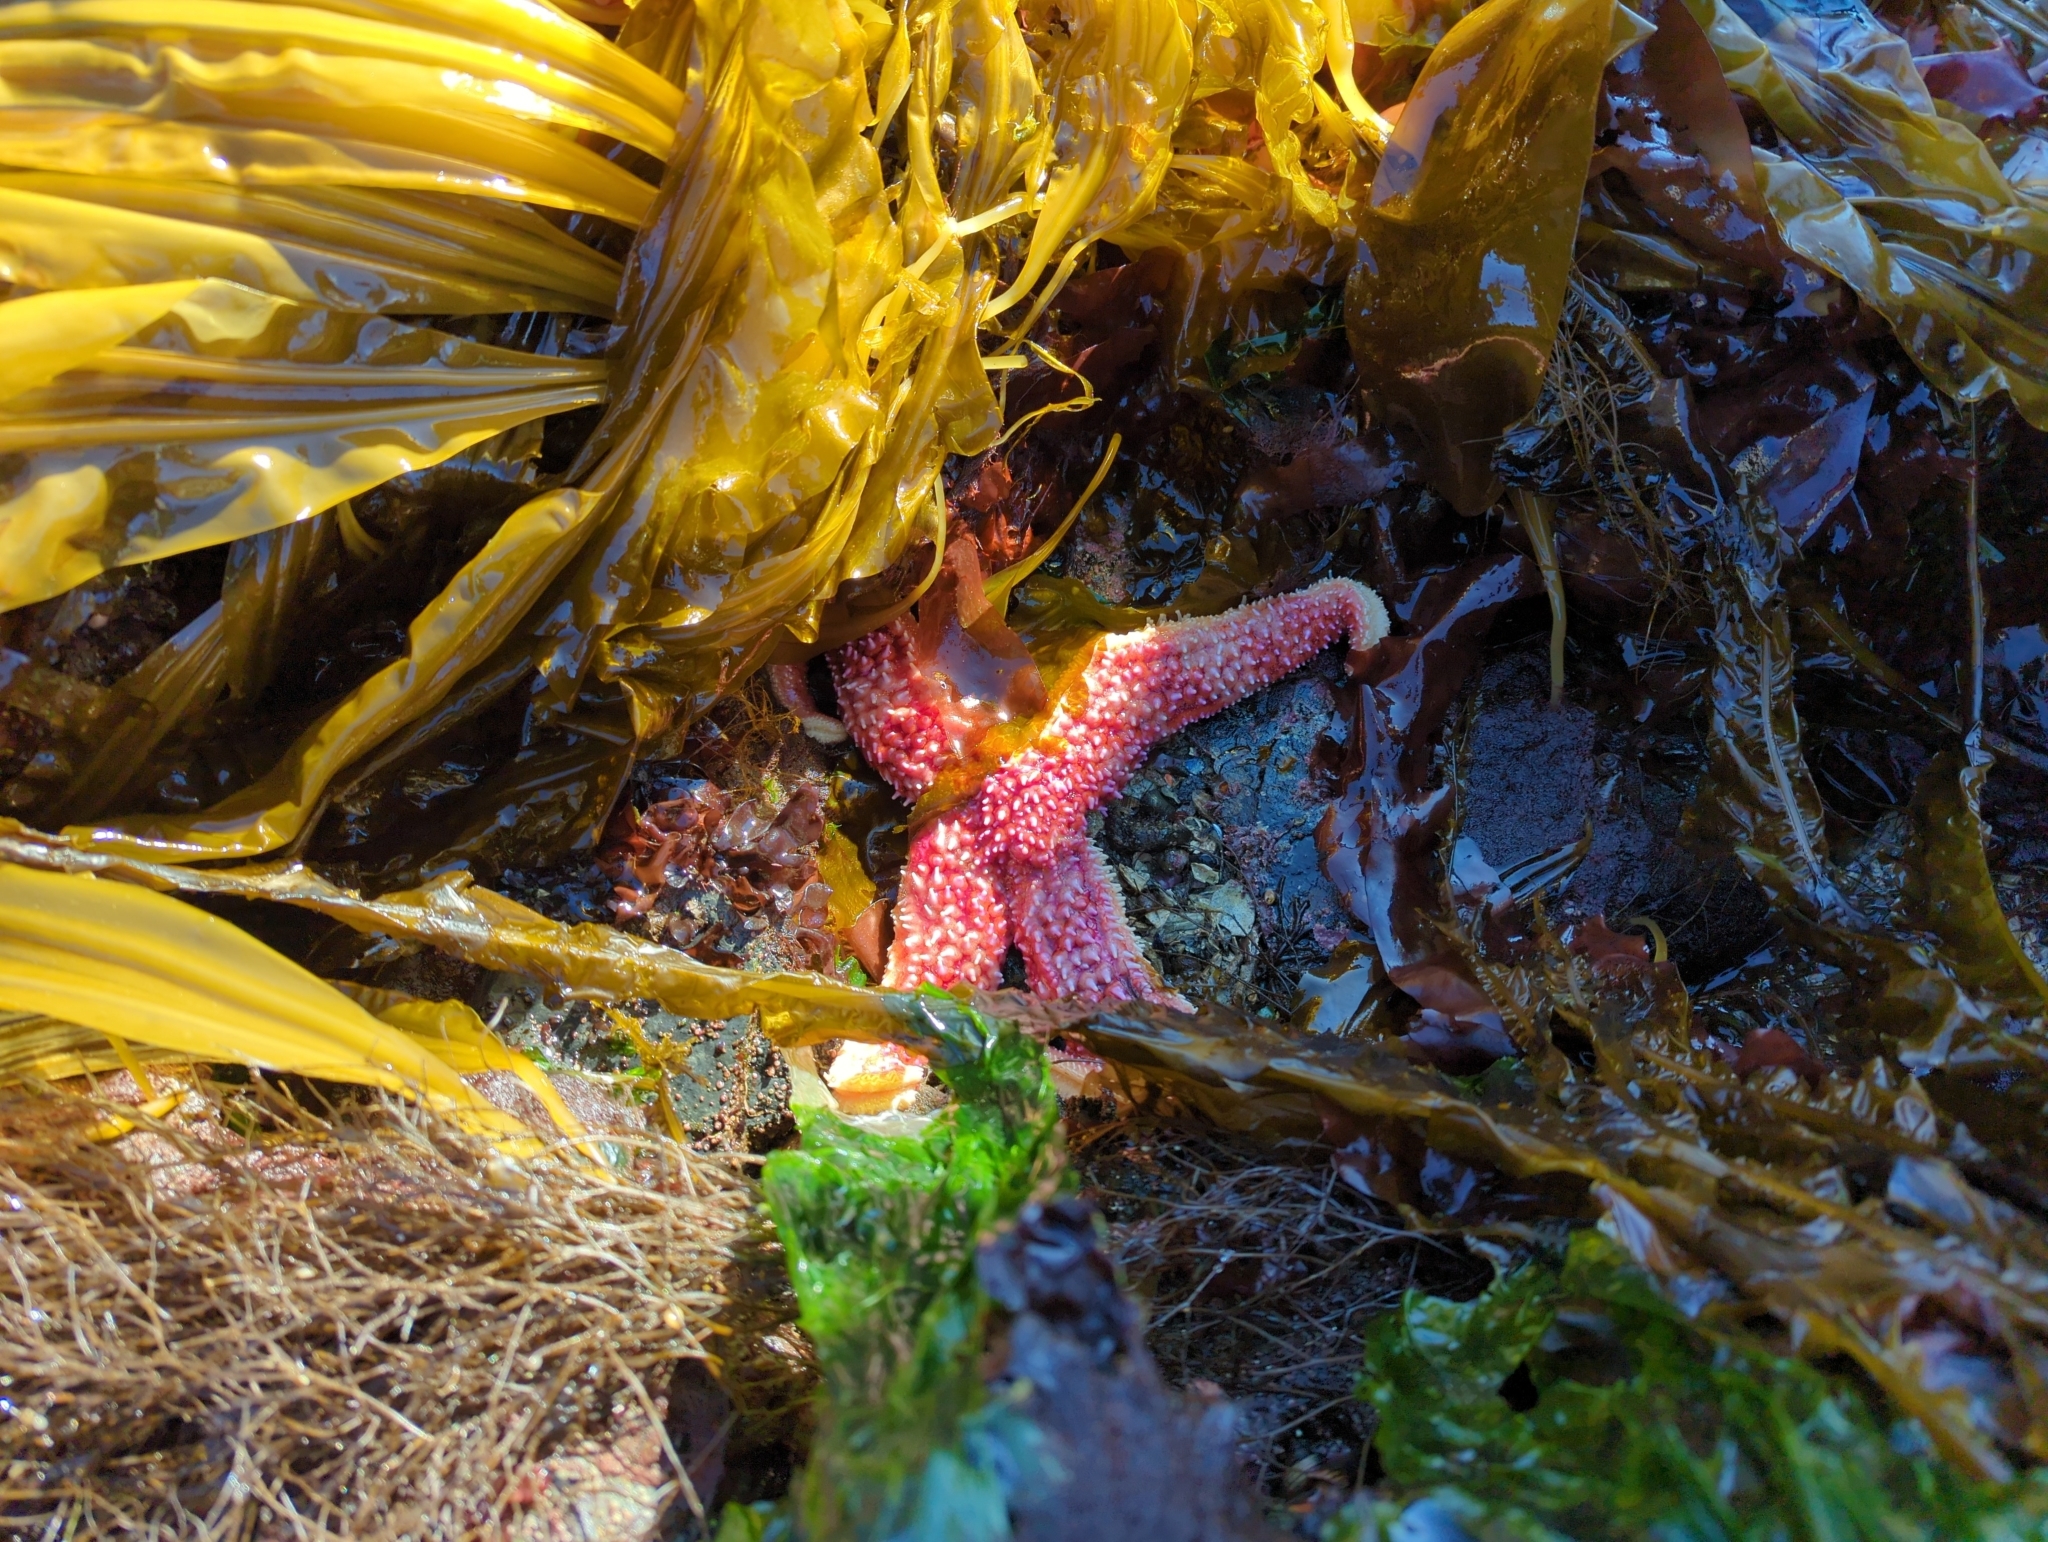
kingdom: Animalia
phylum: Echinodermata
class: Asteroidea
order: Forcipulatida
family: Asteriidae
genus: Orthasterias
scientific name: Orthasterias koehleri
